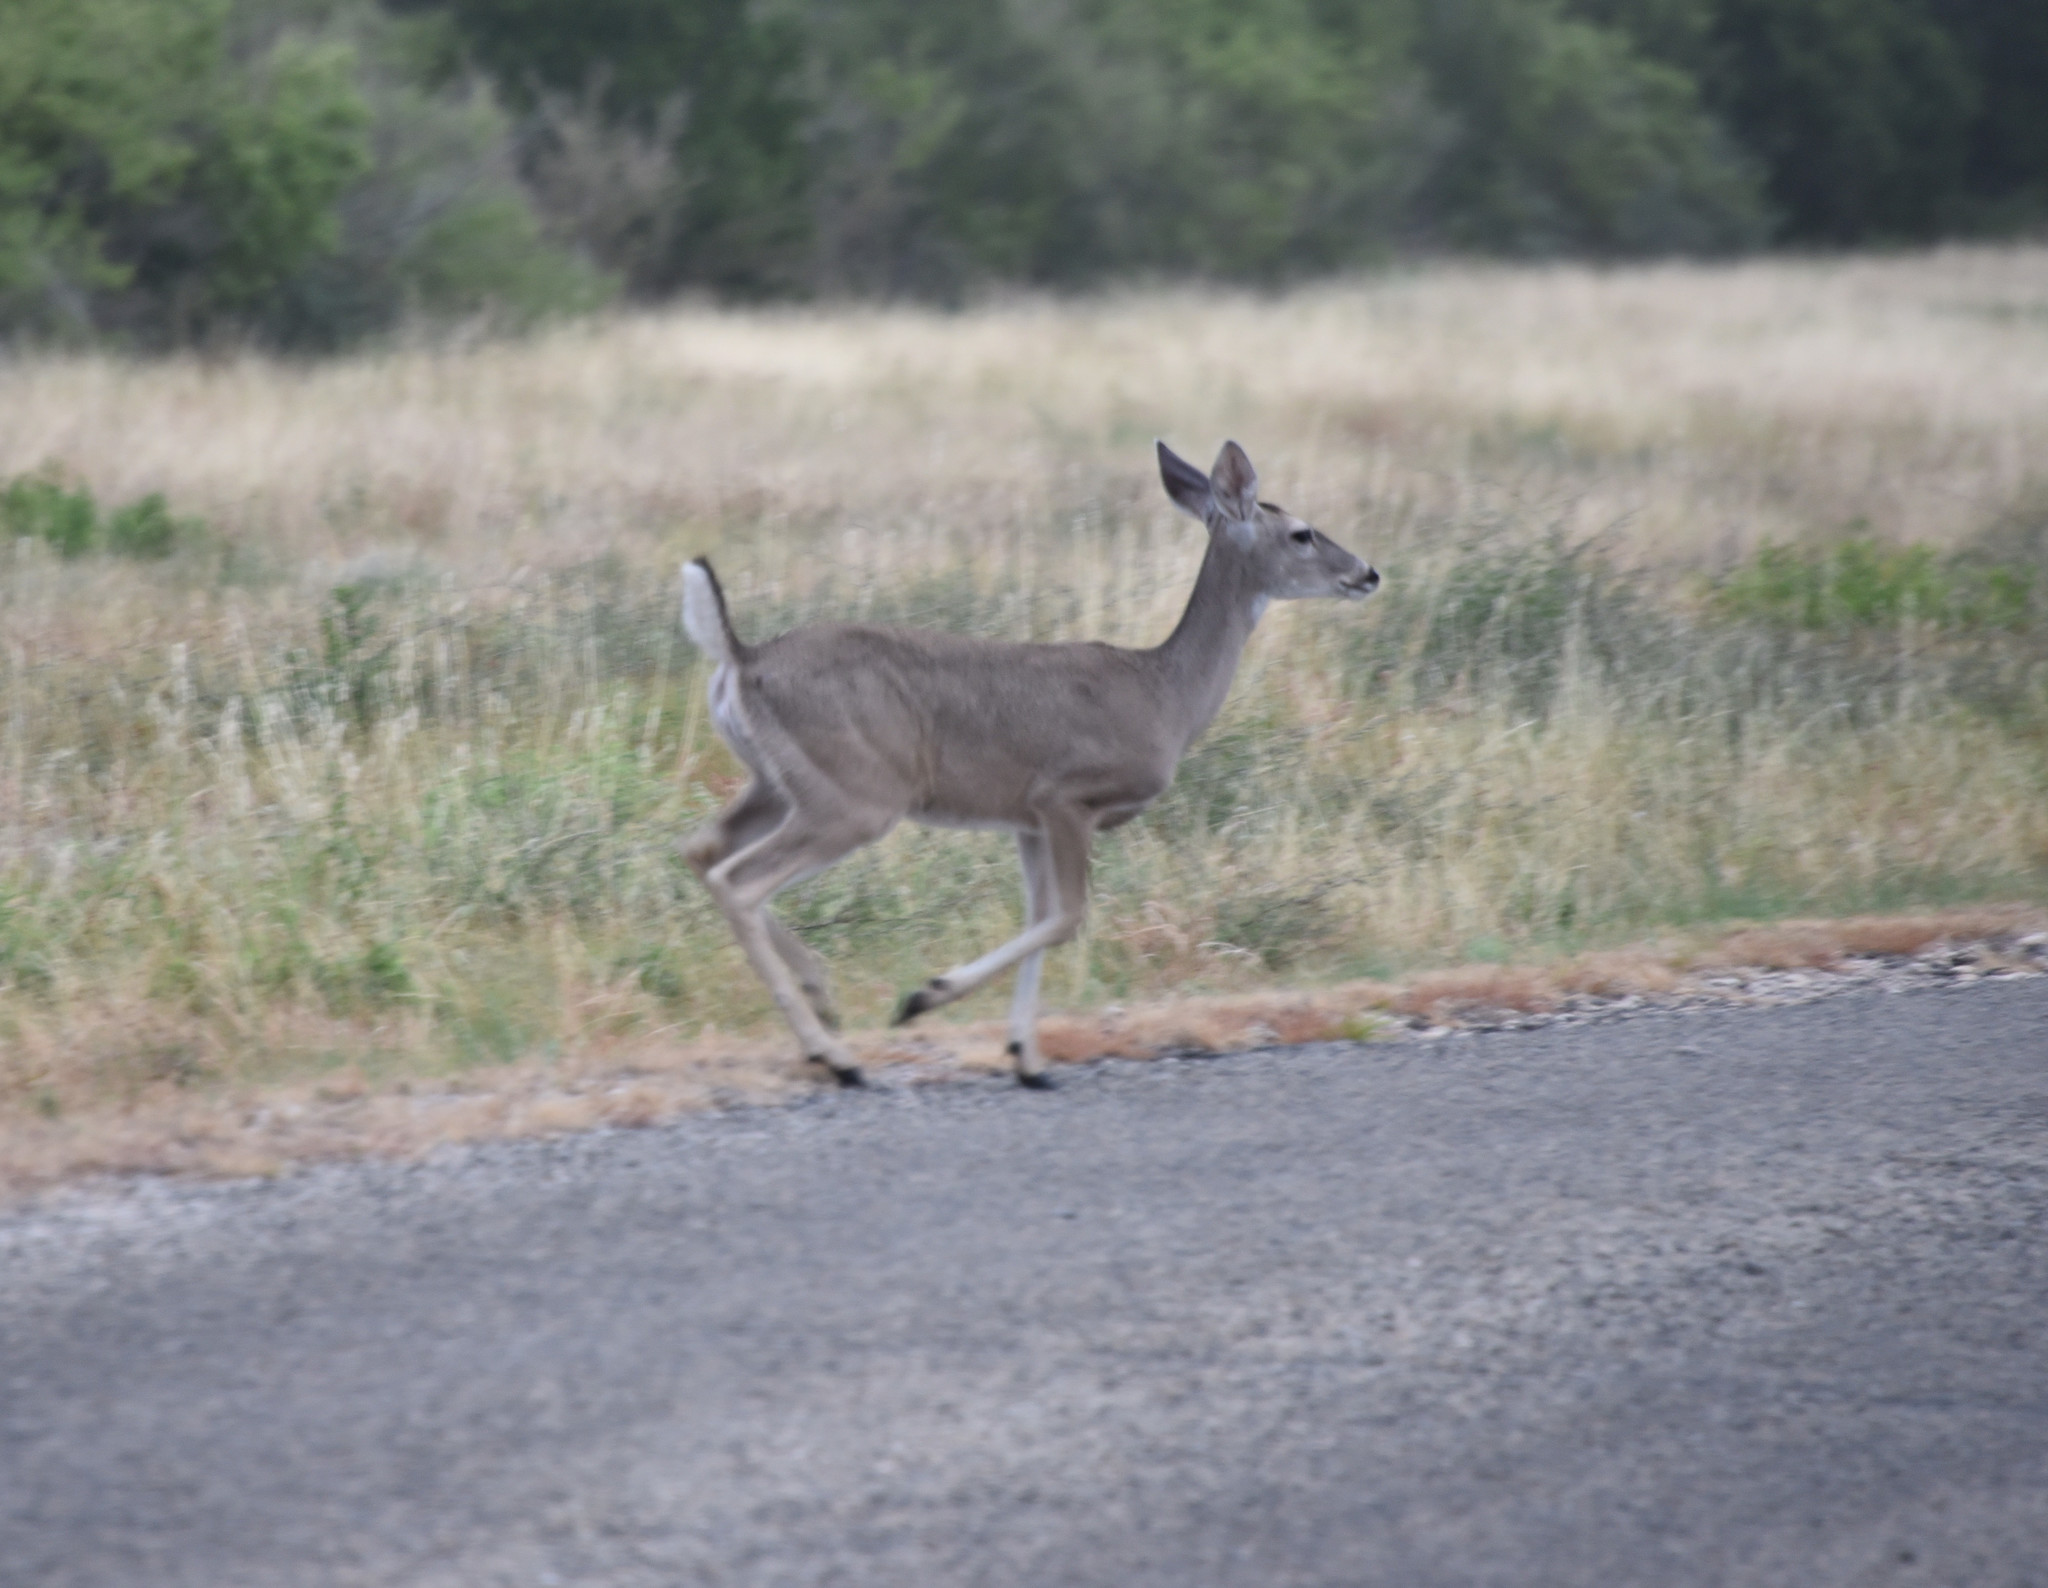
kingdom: Animalia
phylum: Chordata
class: Mammalia
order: Artiodactyla
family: Cervidae
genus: Odocoileus
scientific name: Odocoileus virginianus
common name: White-tailed deer
